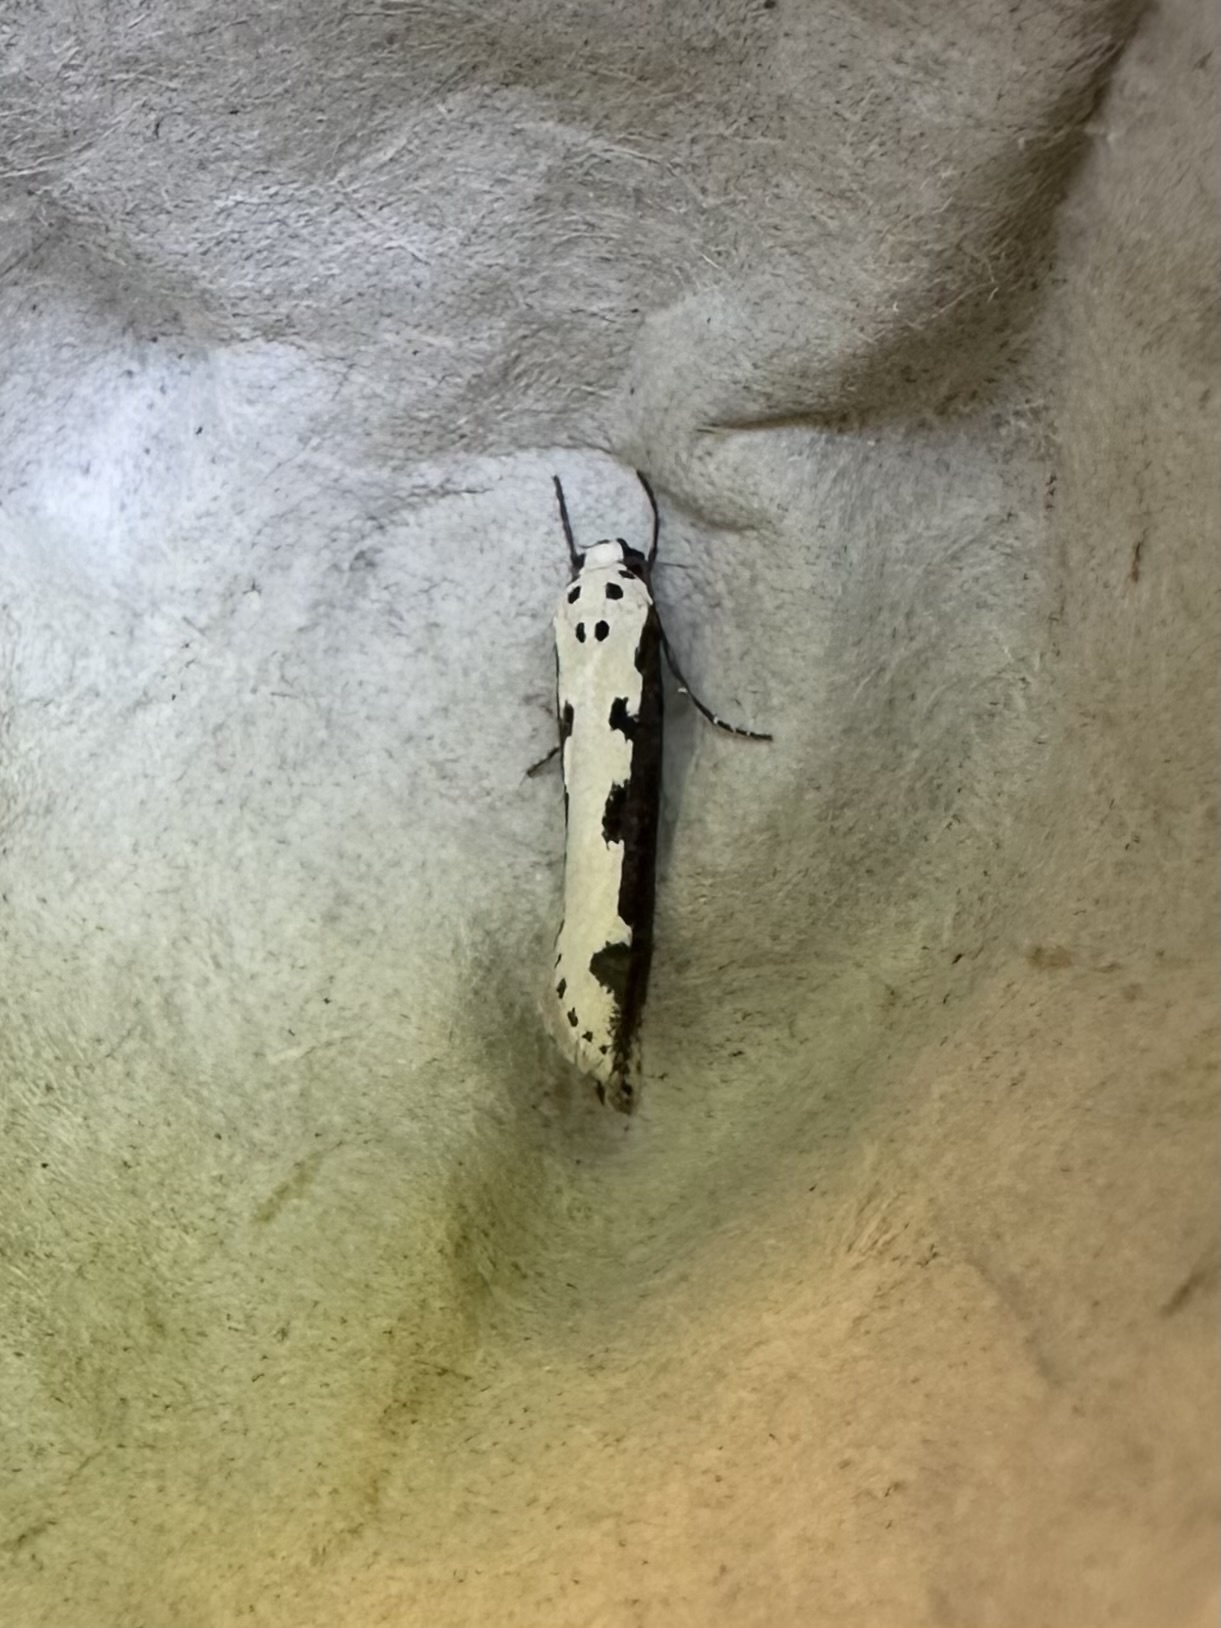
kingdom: Animalia
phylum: Arthropoda
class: Insecta
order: Lepidoptera
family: Ethmiidae
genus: Ethmia
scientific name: Ethmia bipunctella
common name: Bordered ermel
